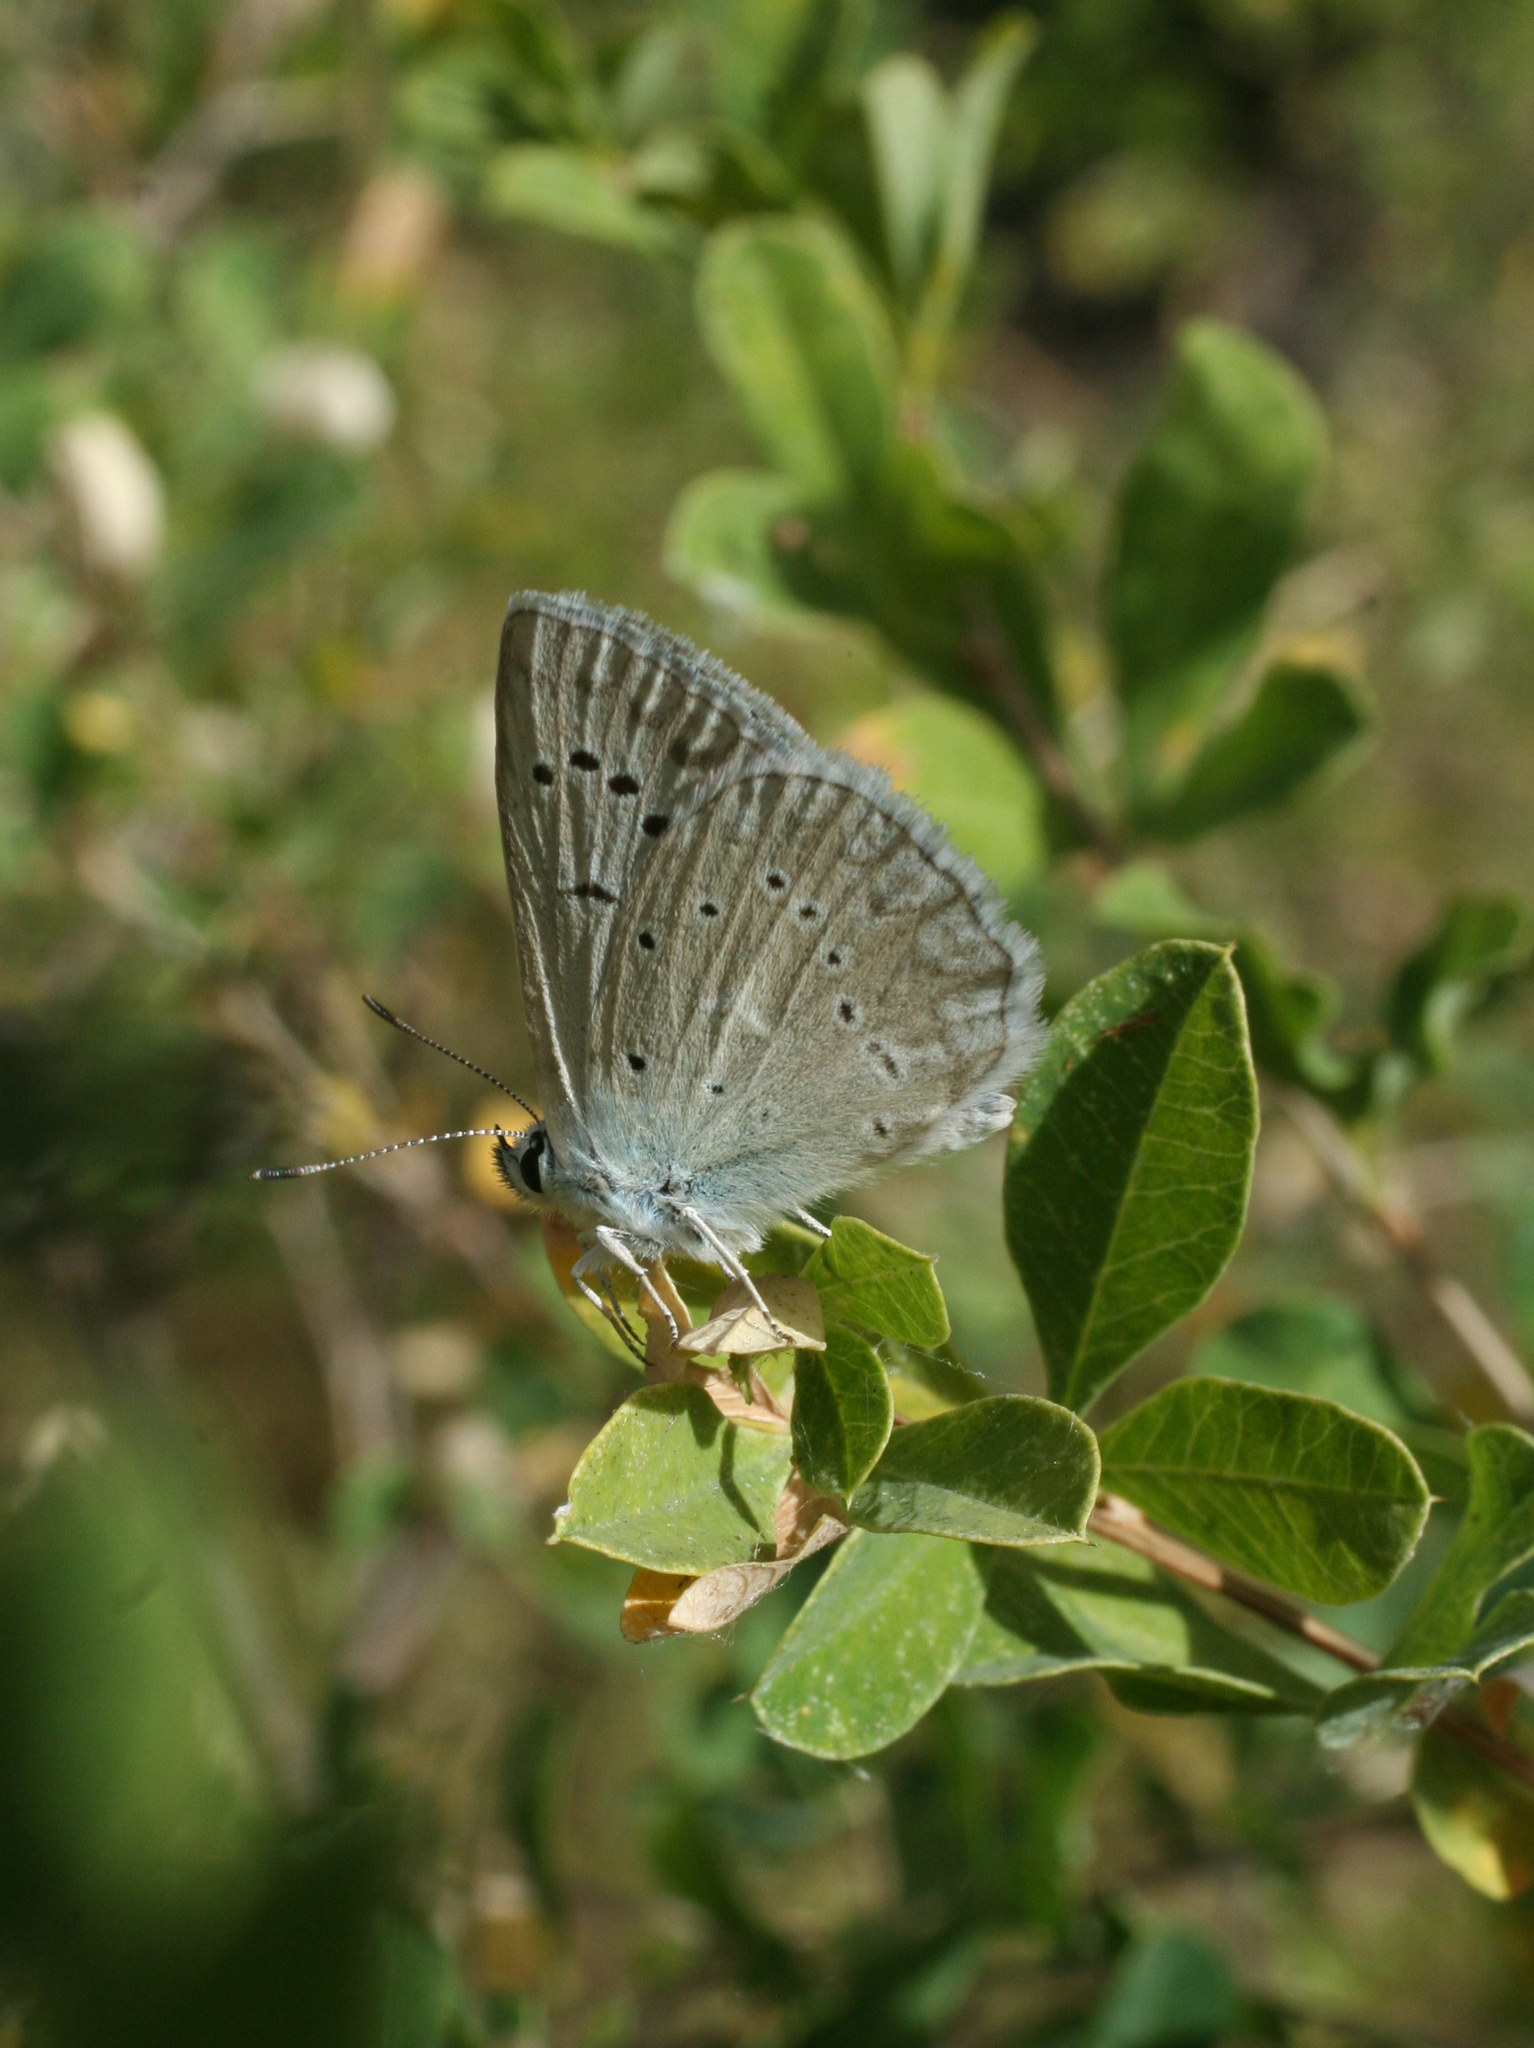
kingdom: Animalia
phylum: Arthropoda
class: Insecta
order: Lepidoptera
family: Lycaenidae
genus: Polyommatus
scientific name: Polyommatus daphnis
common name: Meleager's blue
